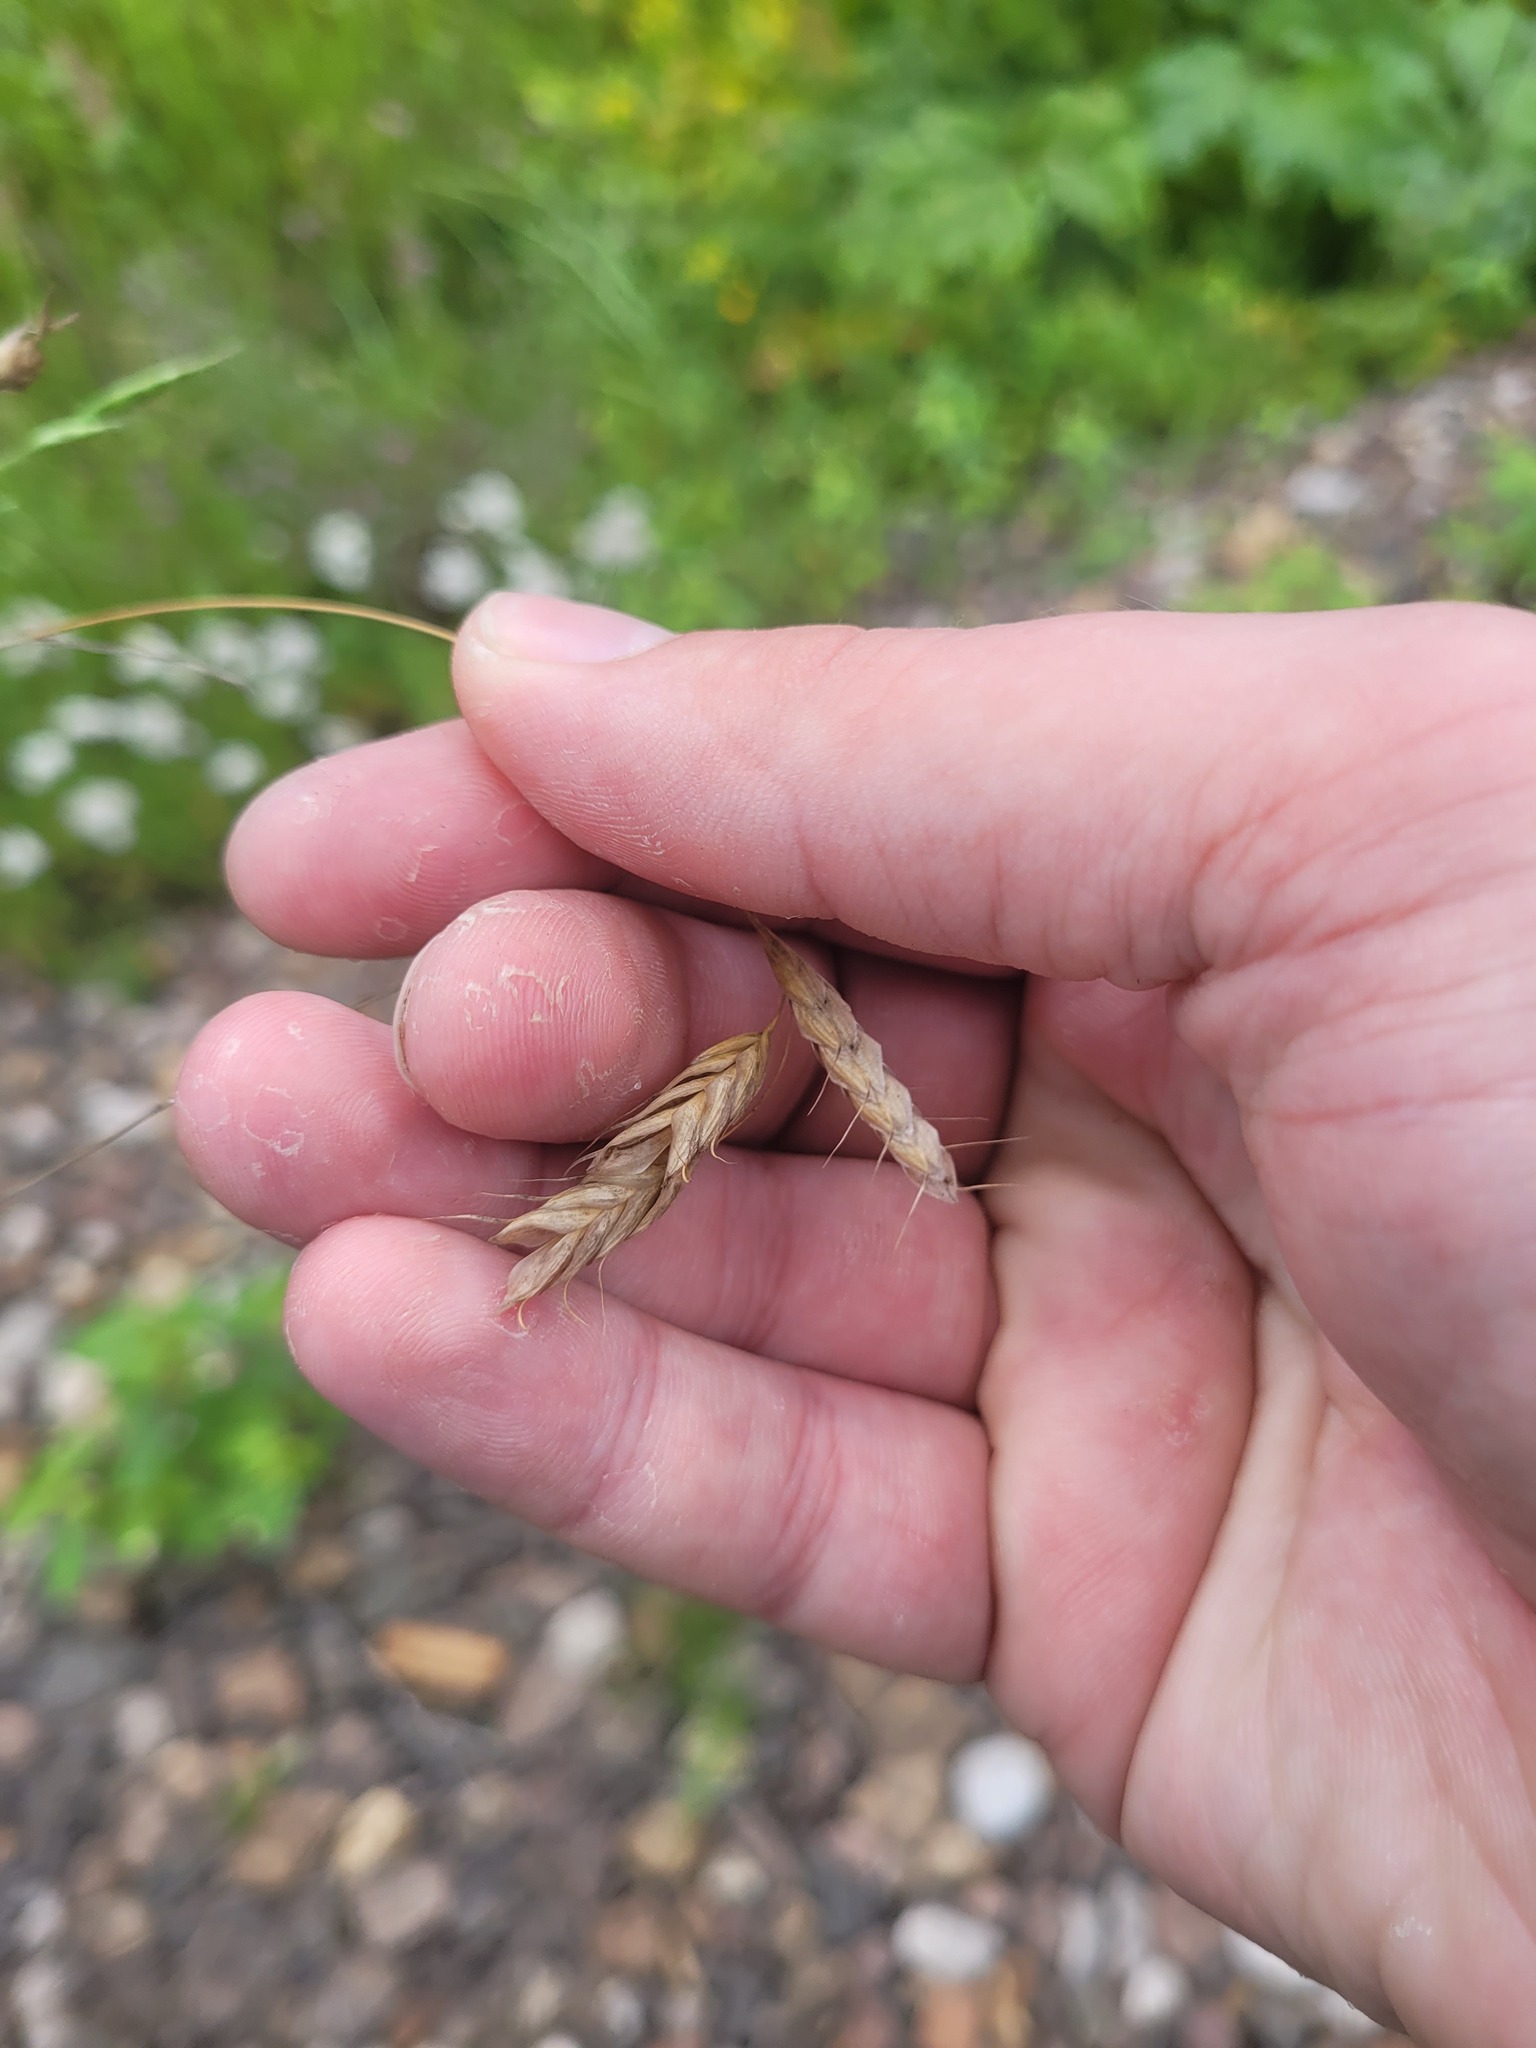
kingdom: Plantae
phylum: Tracheophyta
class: Liliopsida
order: Poales
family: Poaceae
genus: Bromus
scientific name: Bromus squarrosus
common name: Corn brome
